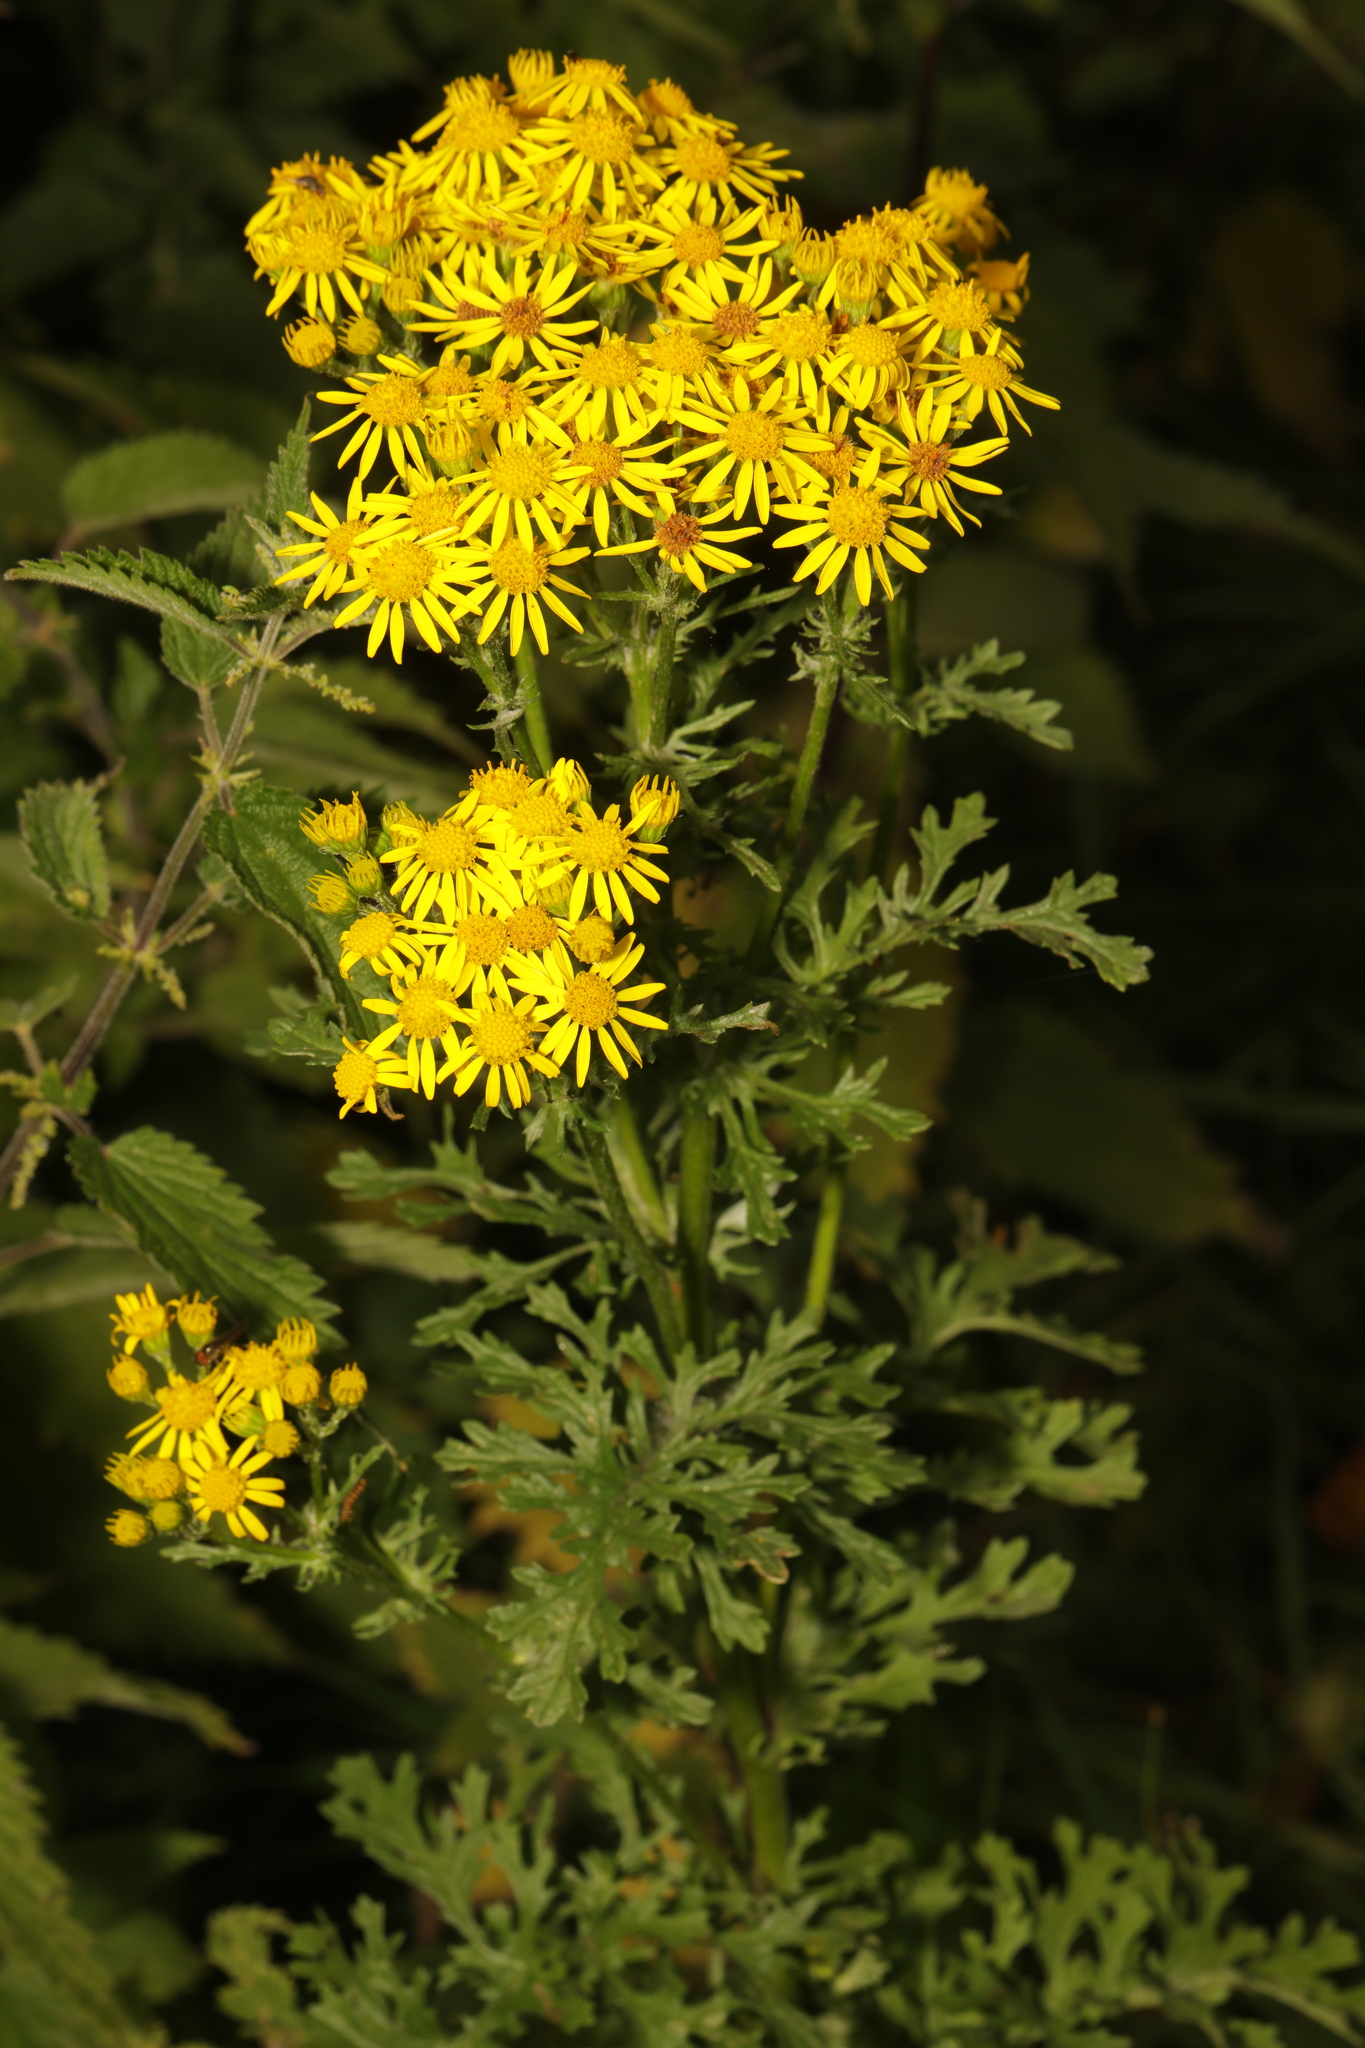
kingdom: Plantae
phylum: Tracheophyta
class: Magnoliopsida
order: Asterales
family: Asteraceae
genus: Jacobaea
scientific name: Jacobaea vulgaris
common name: Stinking willie
